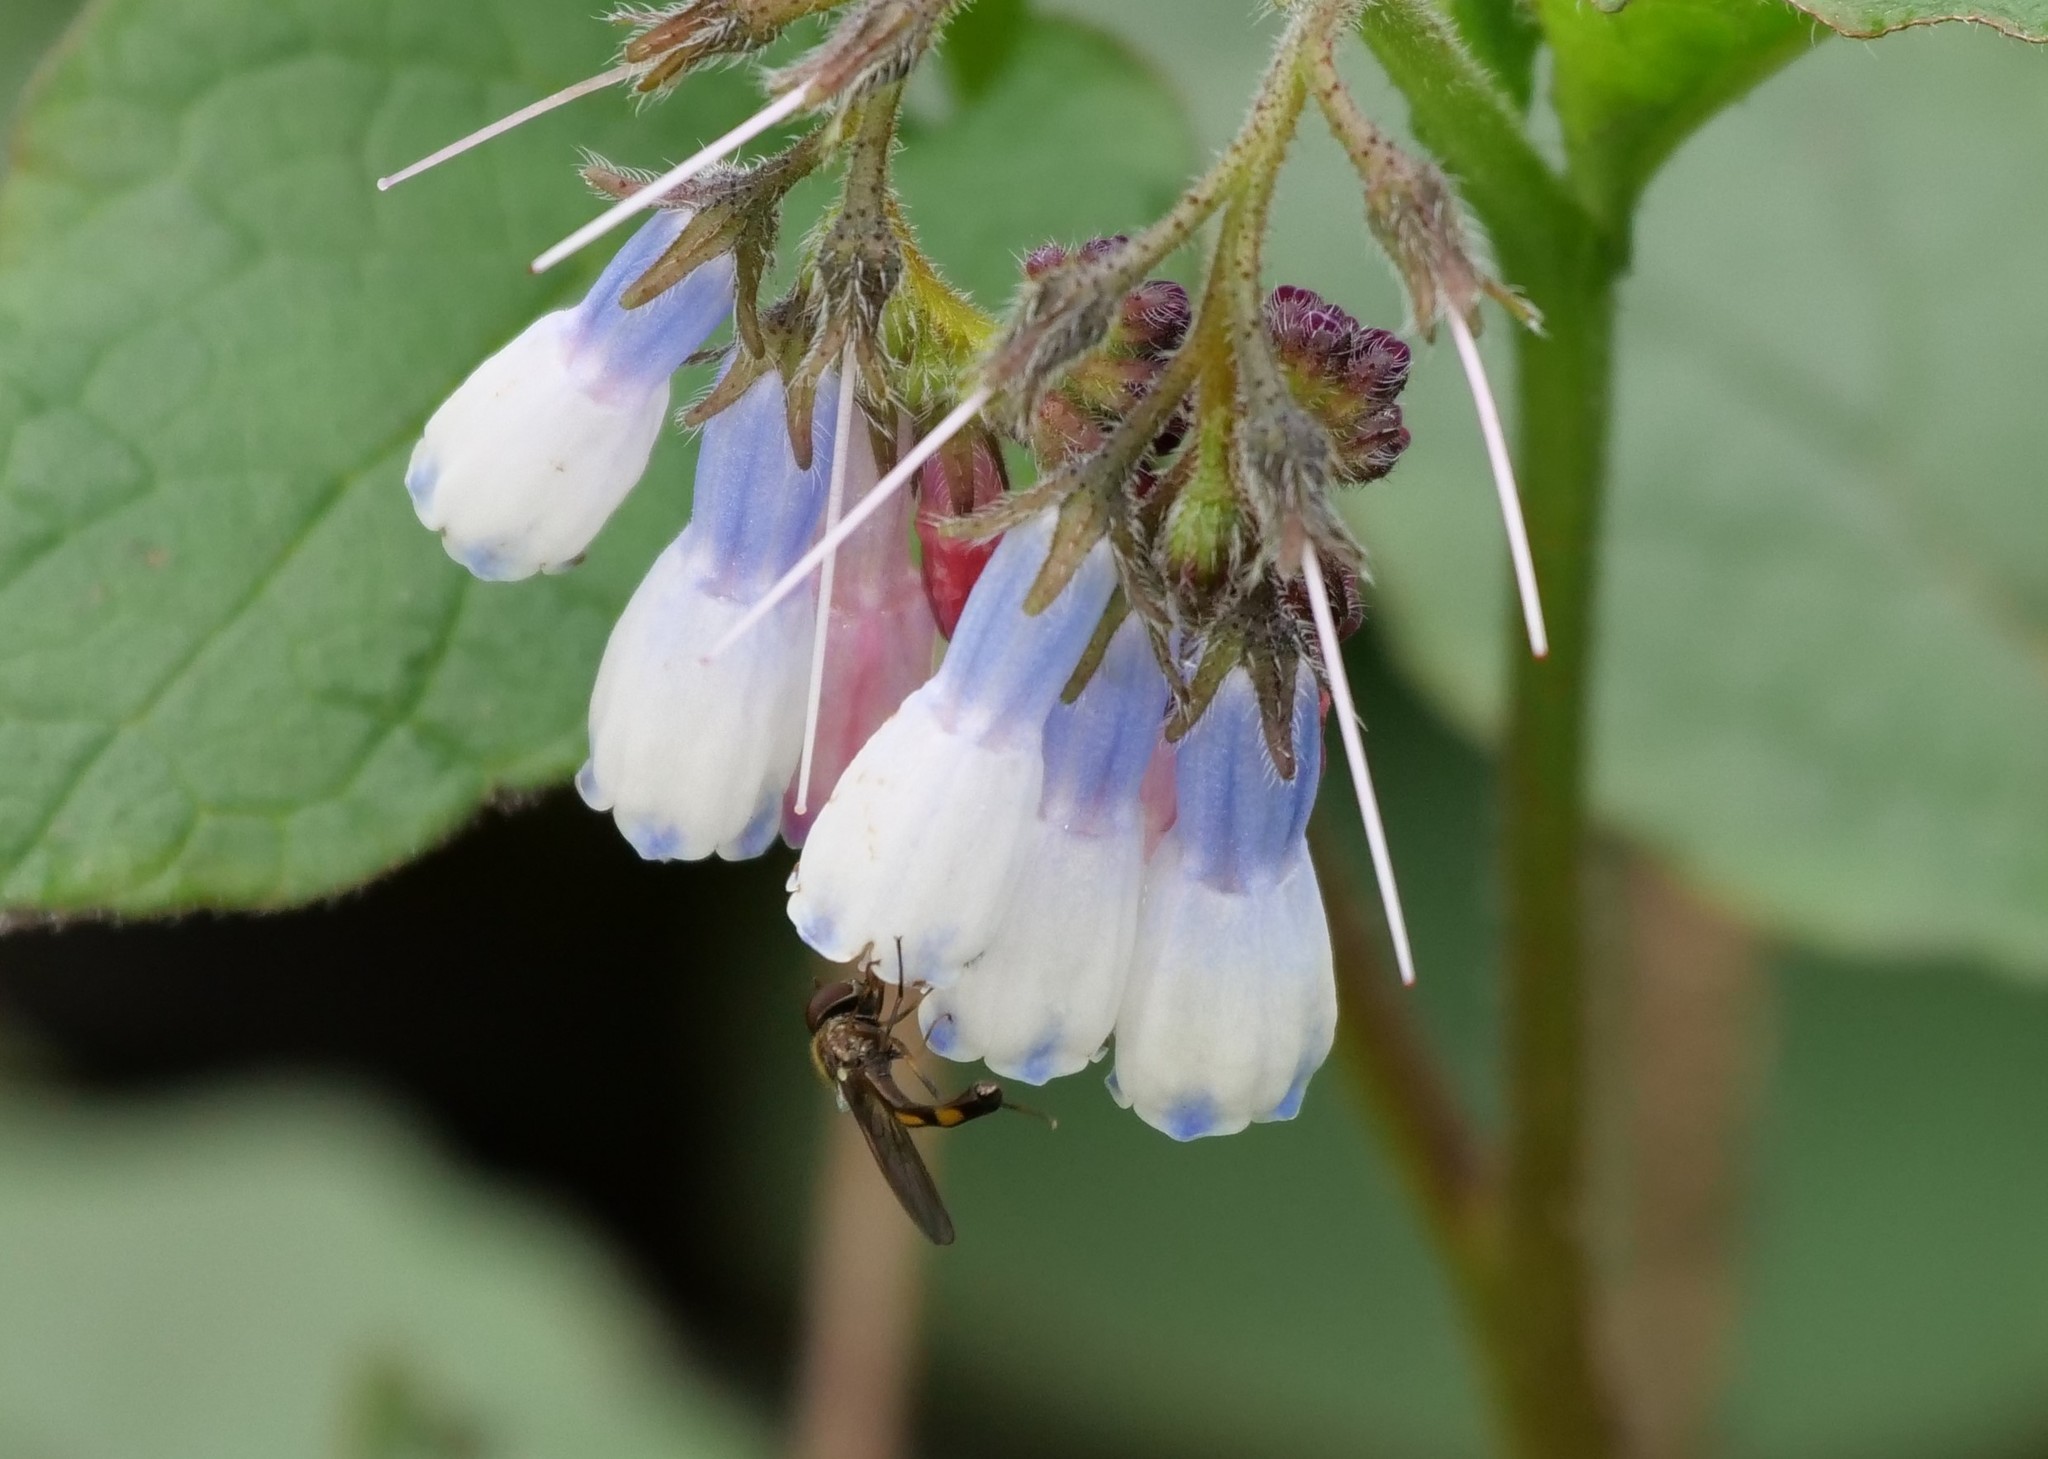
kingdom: Animalia
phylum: Arthropoda
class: Insecta
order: Diptera
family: Syrphidae
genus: Melanostoma
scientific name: Melanostoma mellina
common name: Hover fly
